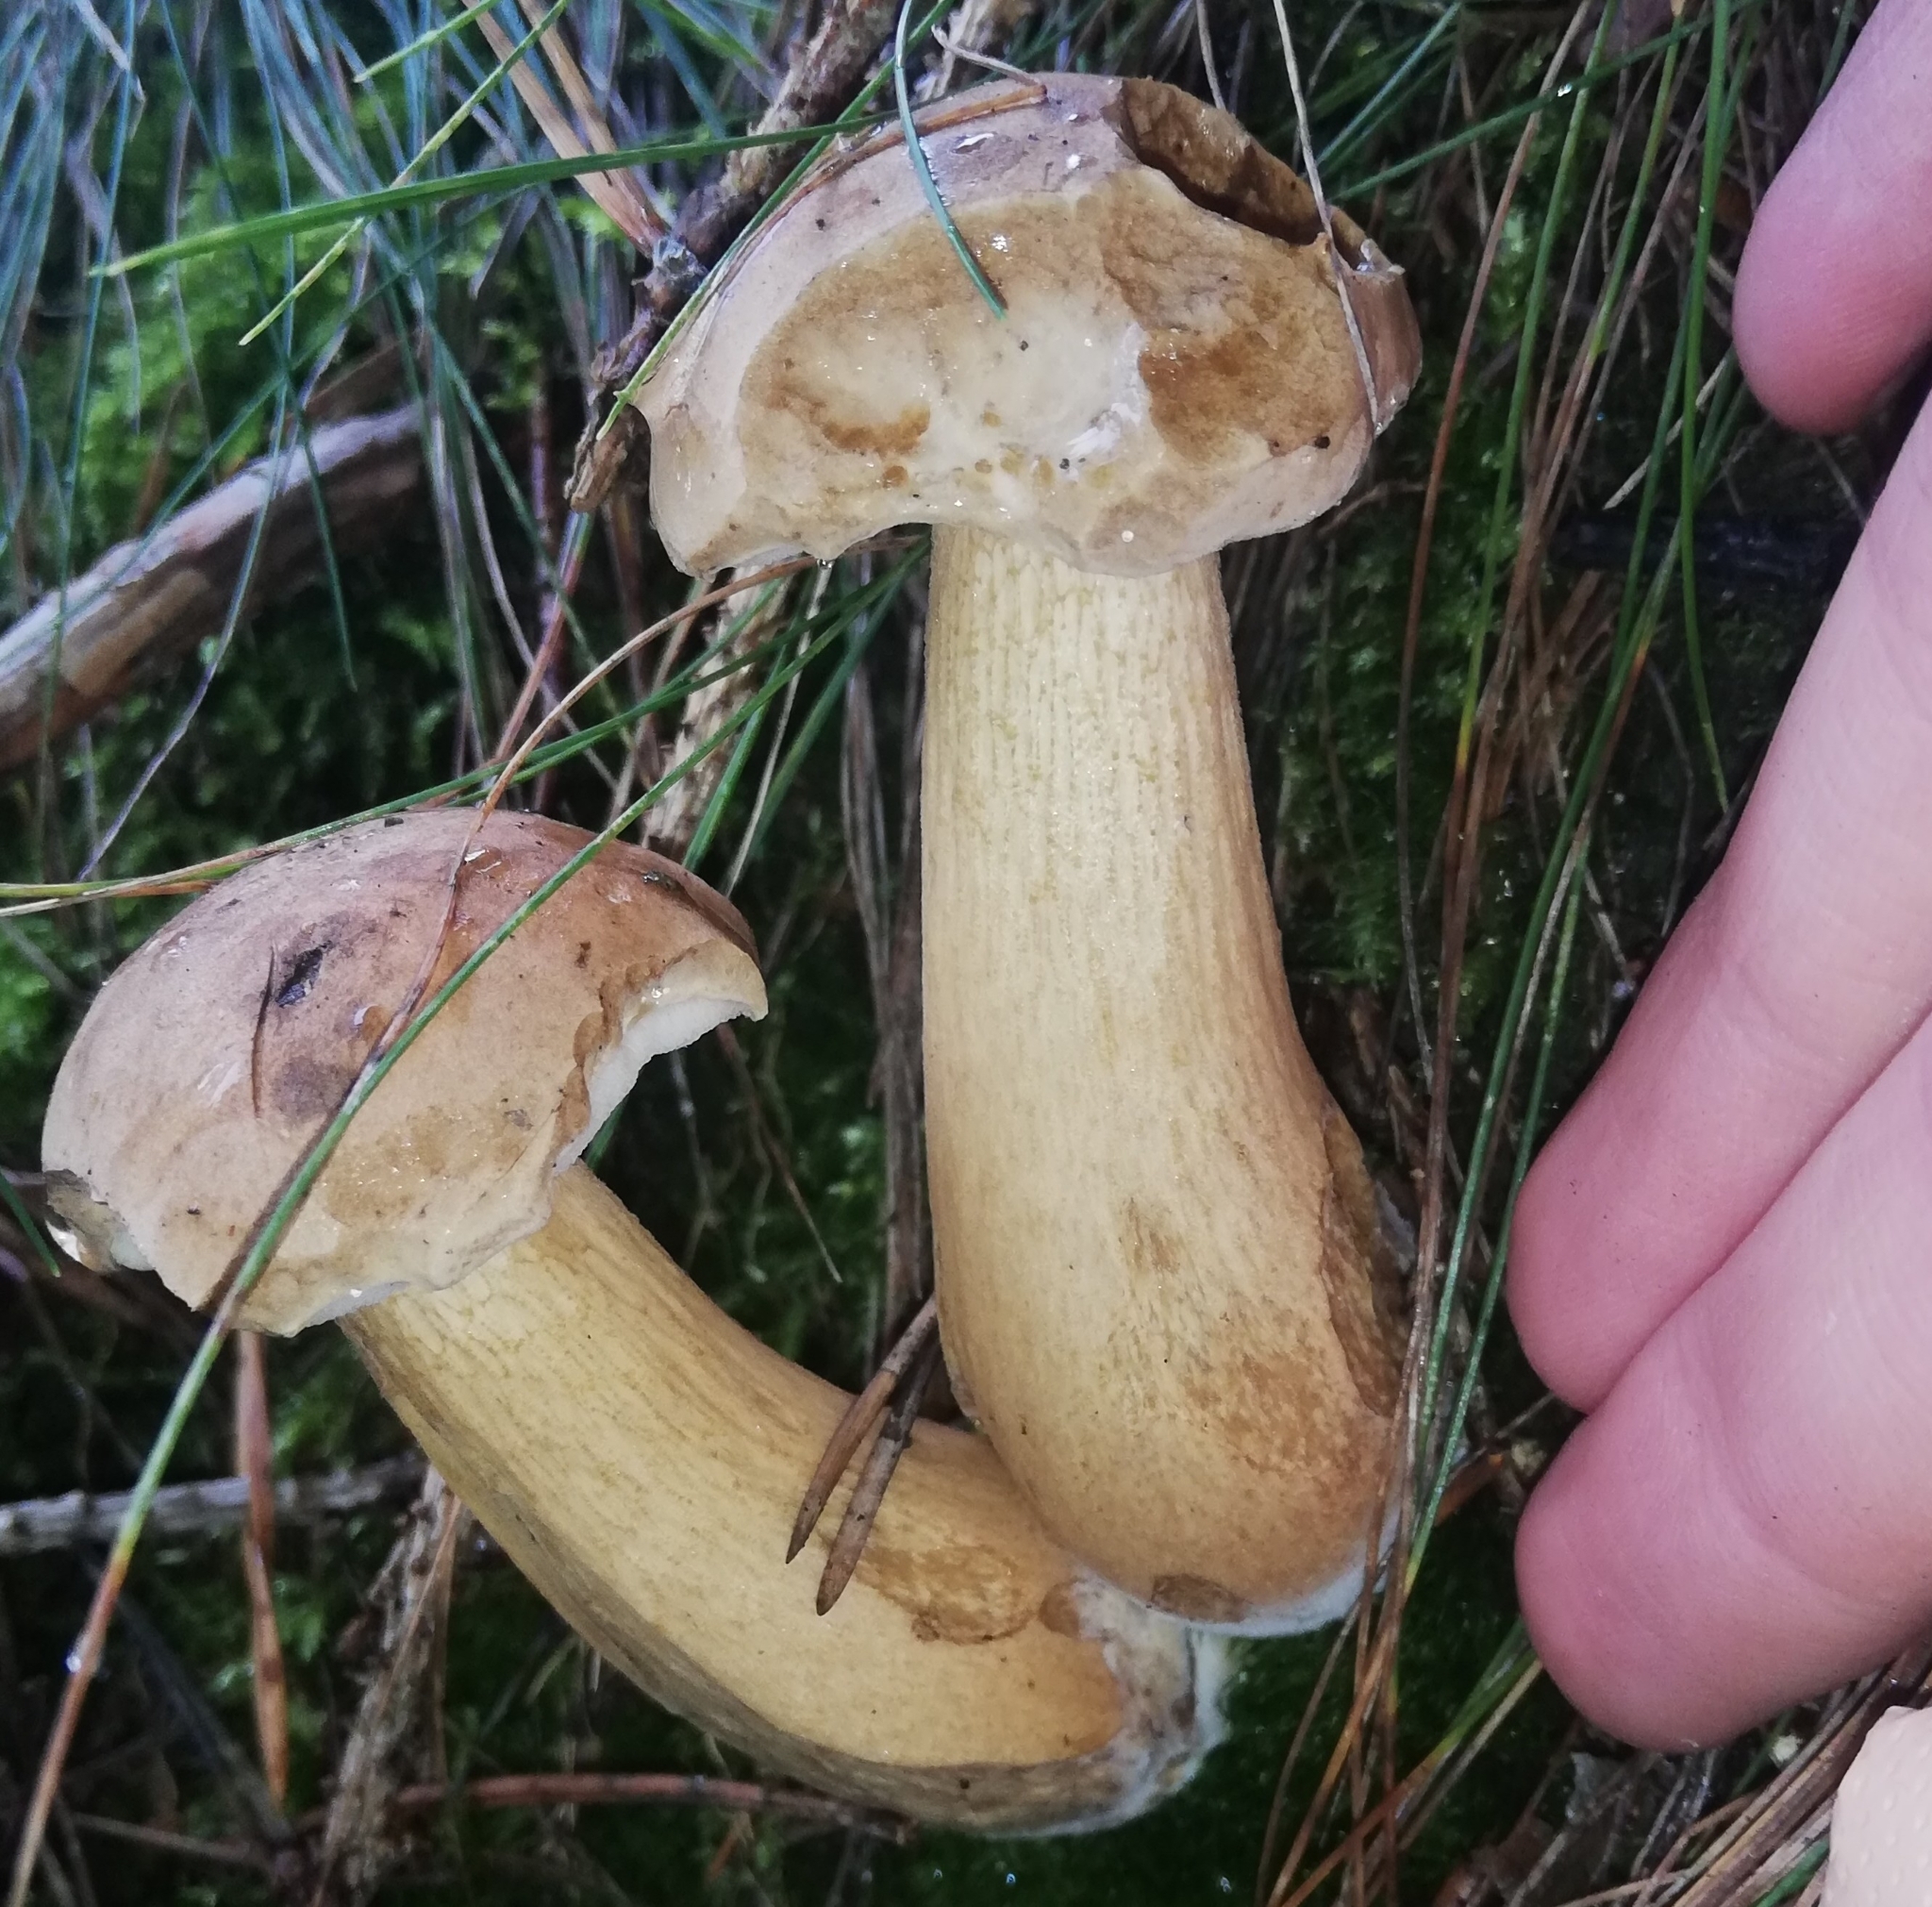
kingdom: Fungi
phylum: Basidiomycota
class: Agaricomycetes
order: Boletales
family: Boletaceae
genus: Tylopilus
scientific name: Tylopilus felleus
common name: Bitter bolete
